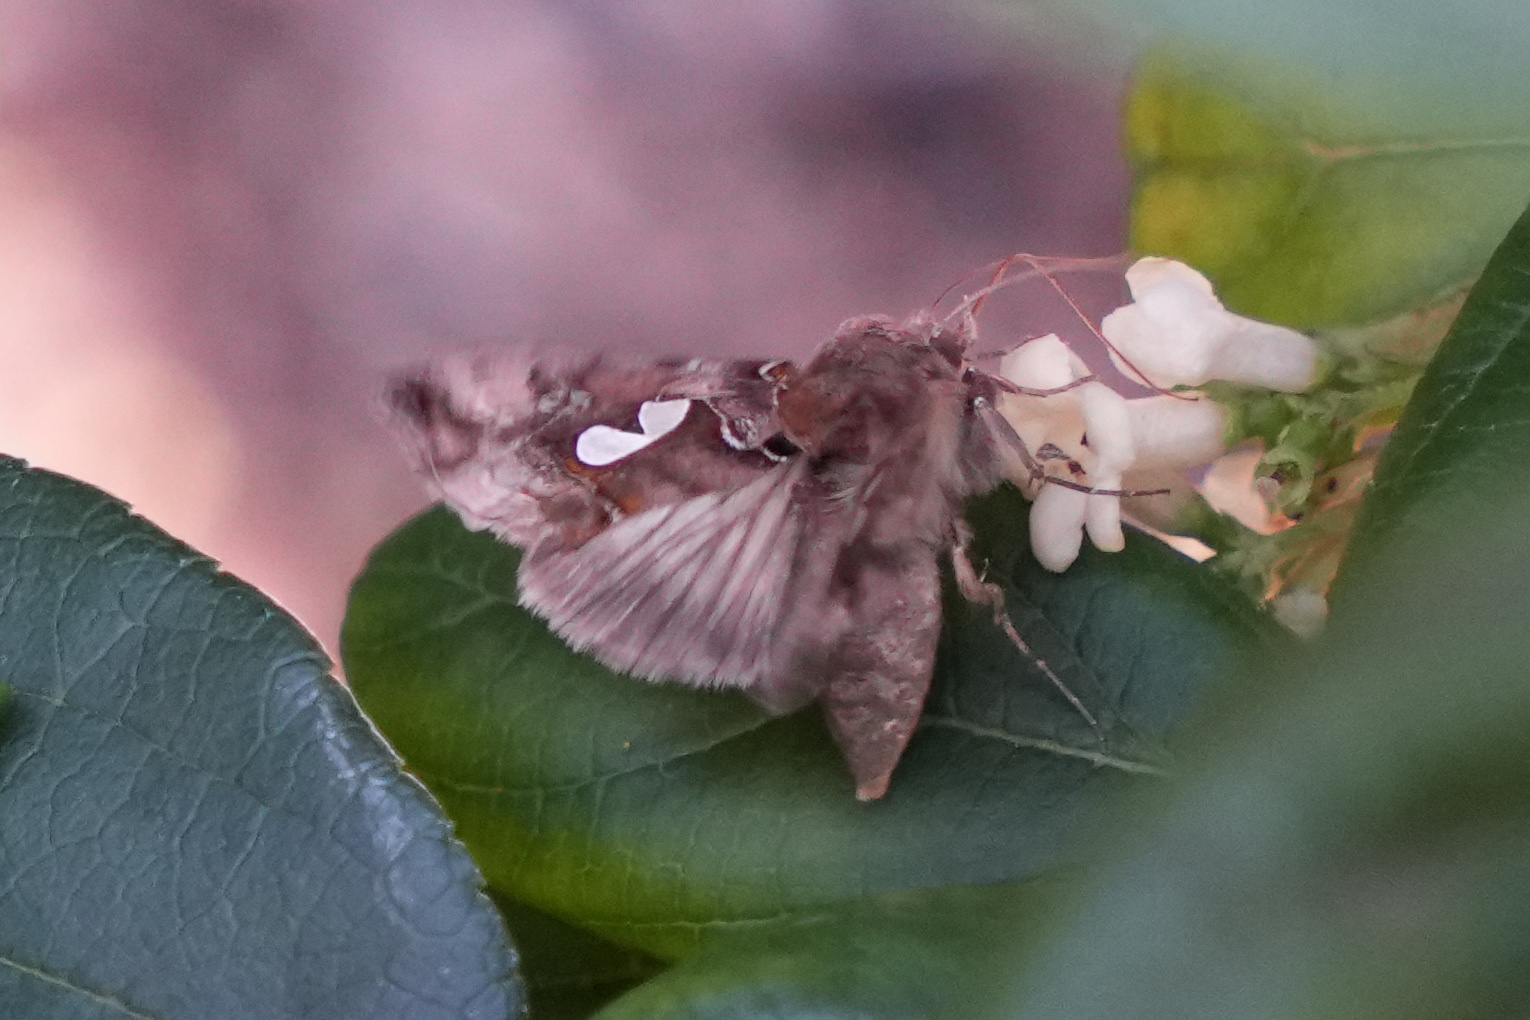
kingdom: Animalia
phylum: Arthropoda
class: Insecta
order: Lepidoptera
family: Noctuidae
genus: Megalographa
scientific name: Megalographa biloba
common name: Cutworm
